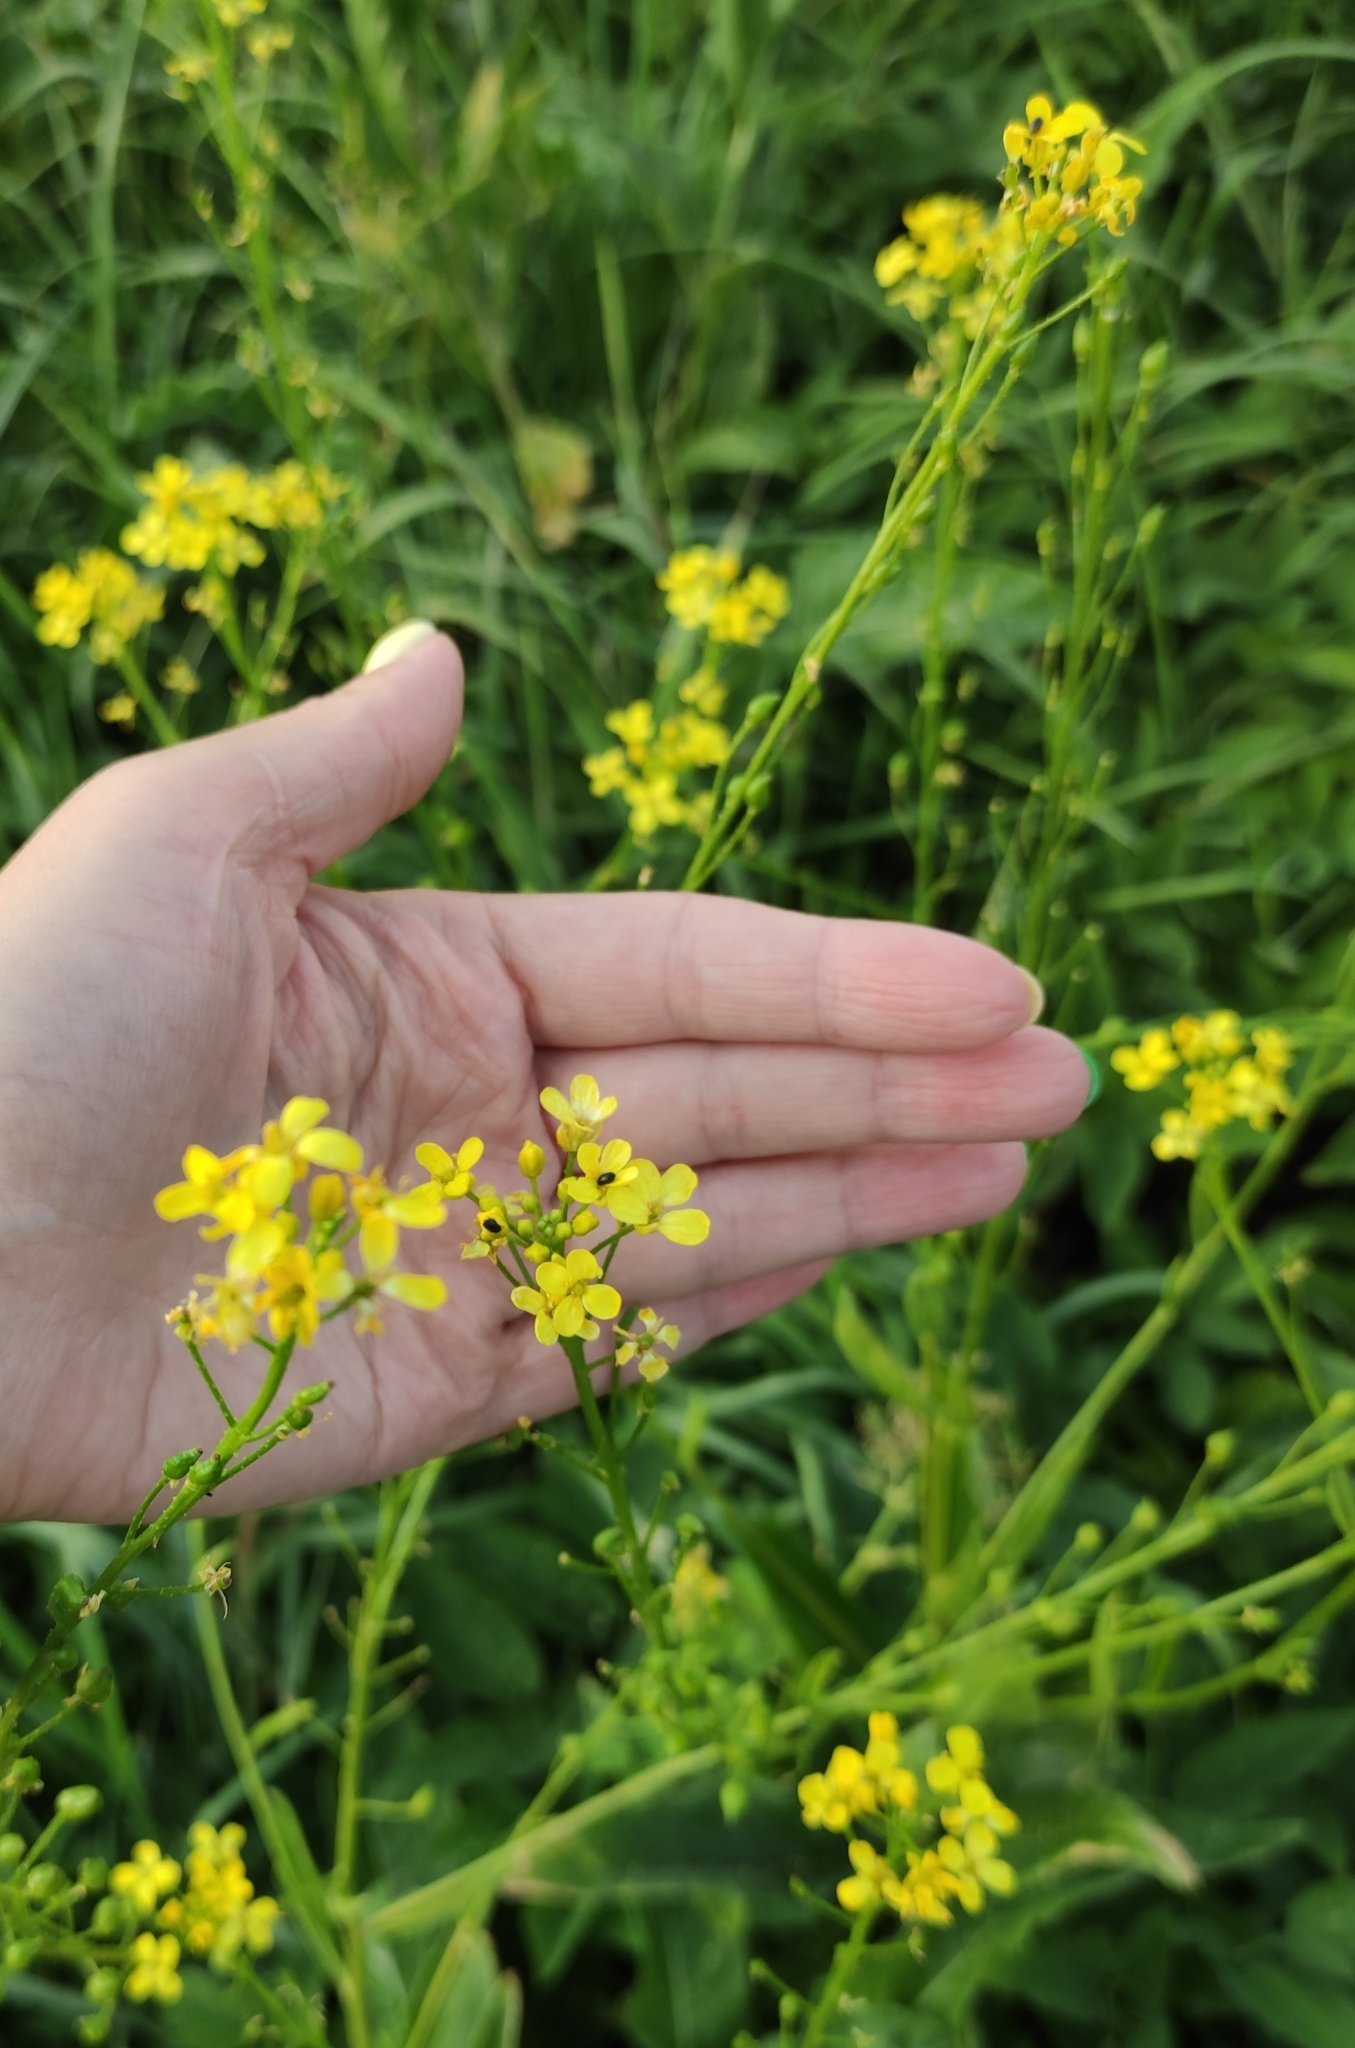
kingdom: Plantae
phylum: Tracheophyta
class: Magnoliopsida
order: Brassicales
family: Brassicaceae
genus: Bunias
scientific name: Bunias orientalis
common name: Warty-cabbage
